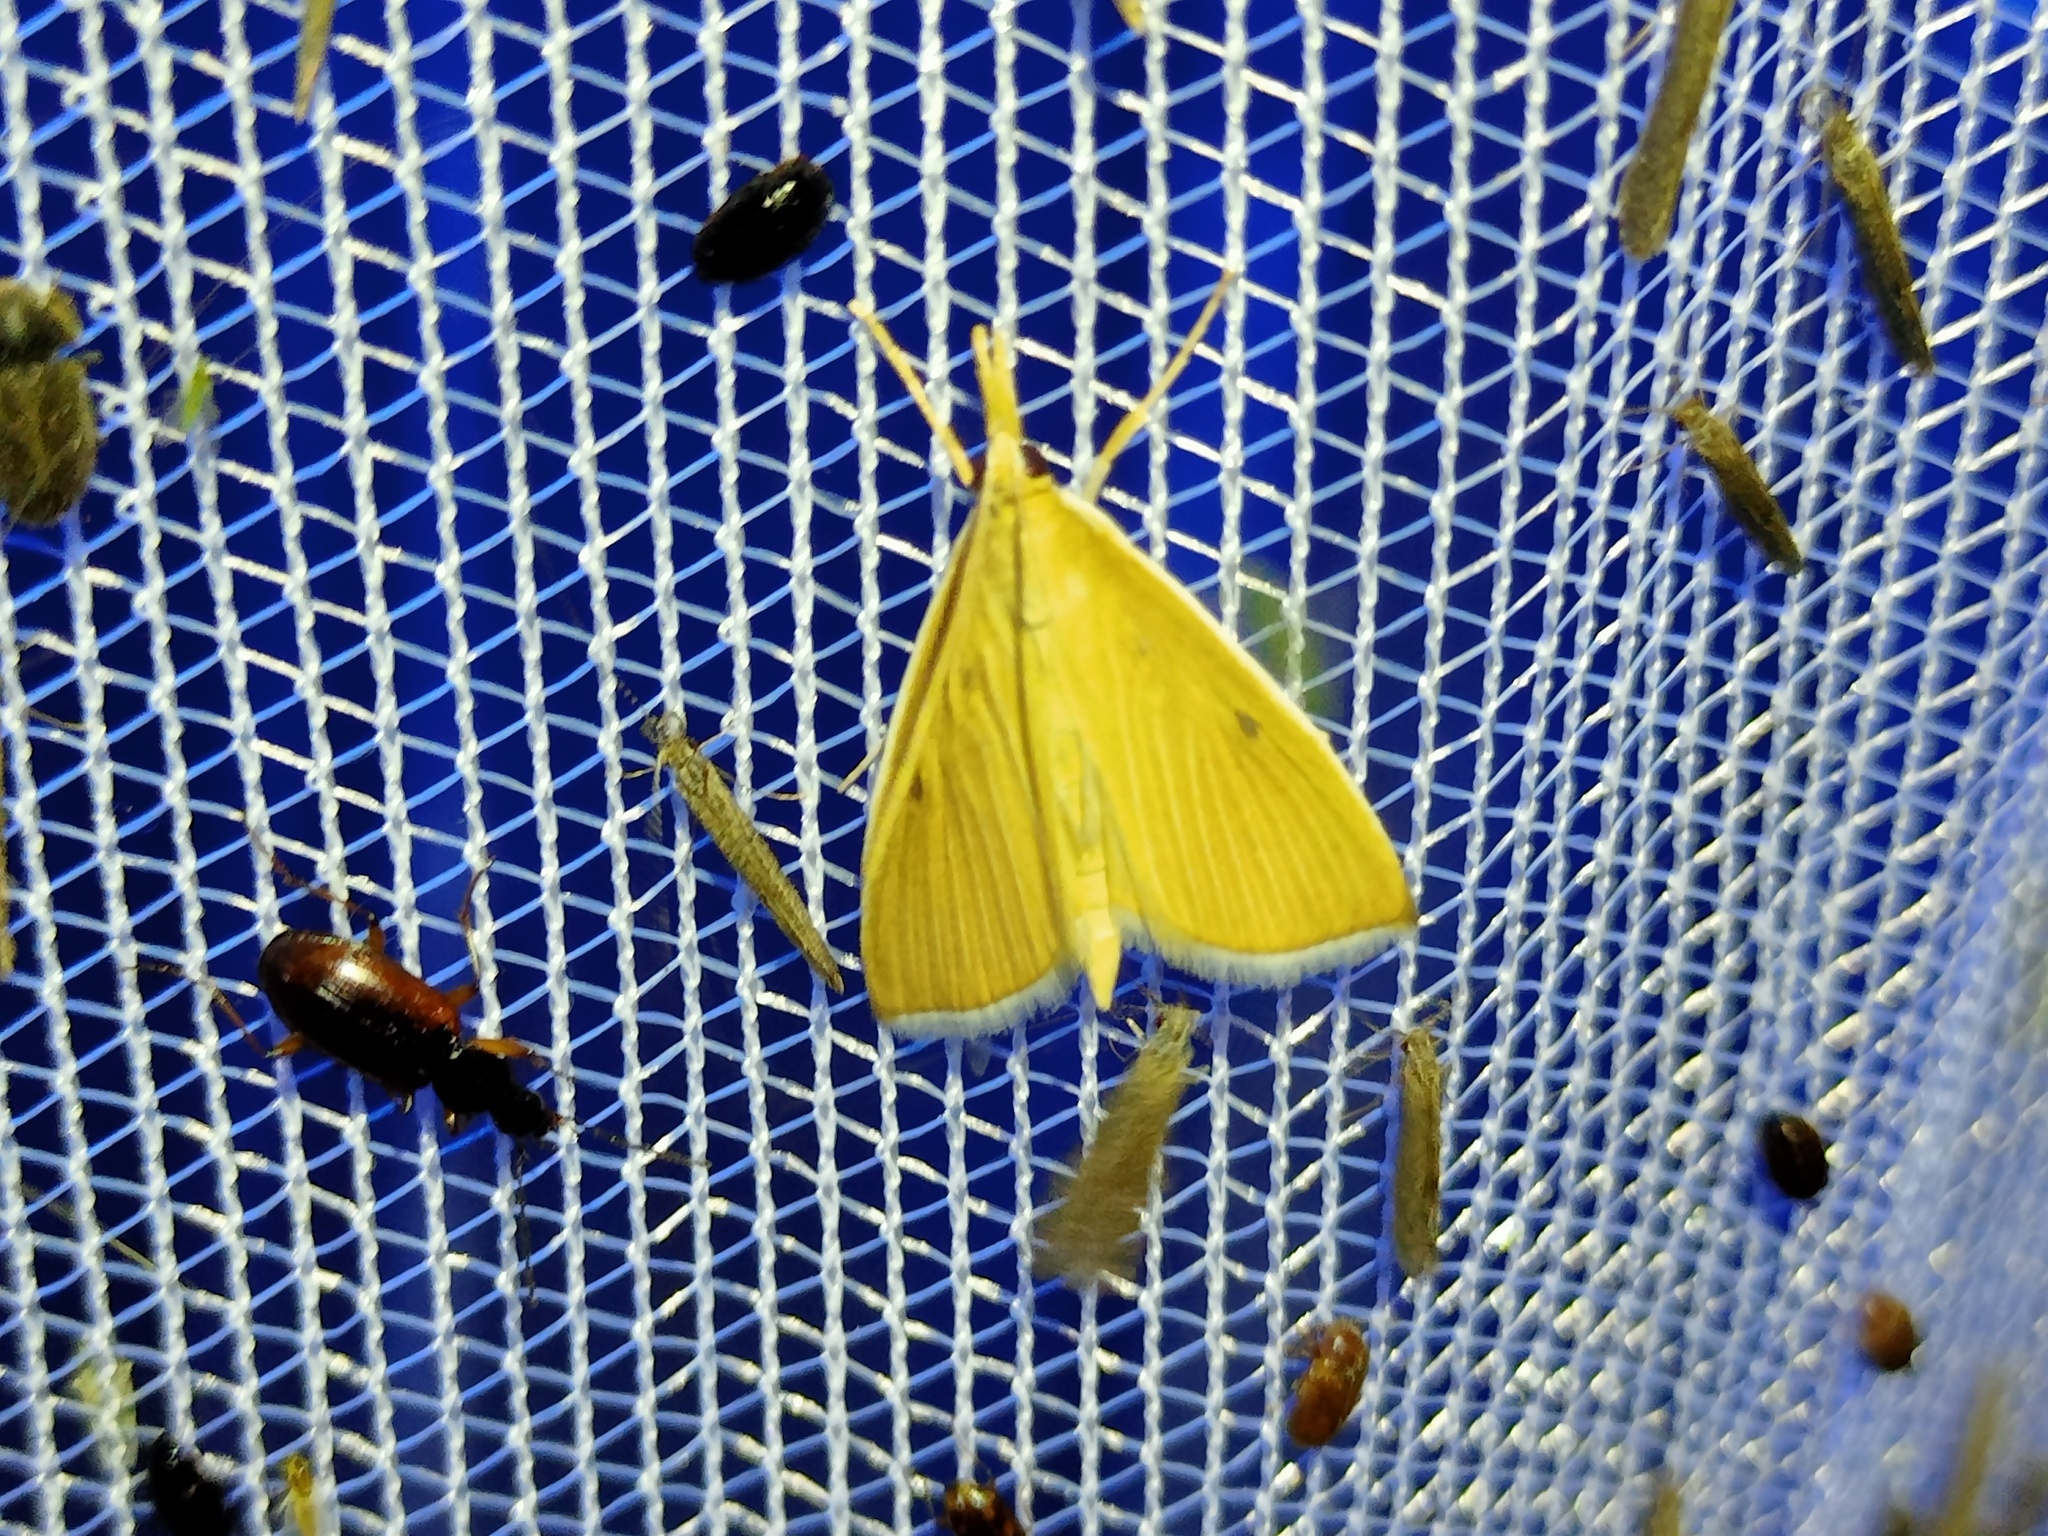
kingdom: Animalia
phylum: Arthropoda
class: Insecta
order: Lepidoptera
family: Crambidae
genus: Calamochrous
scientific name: Calamochrous Sclerocona acutella
